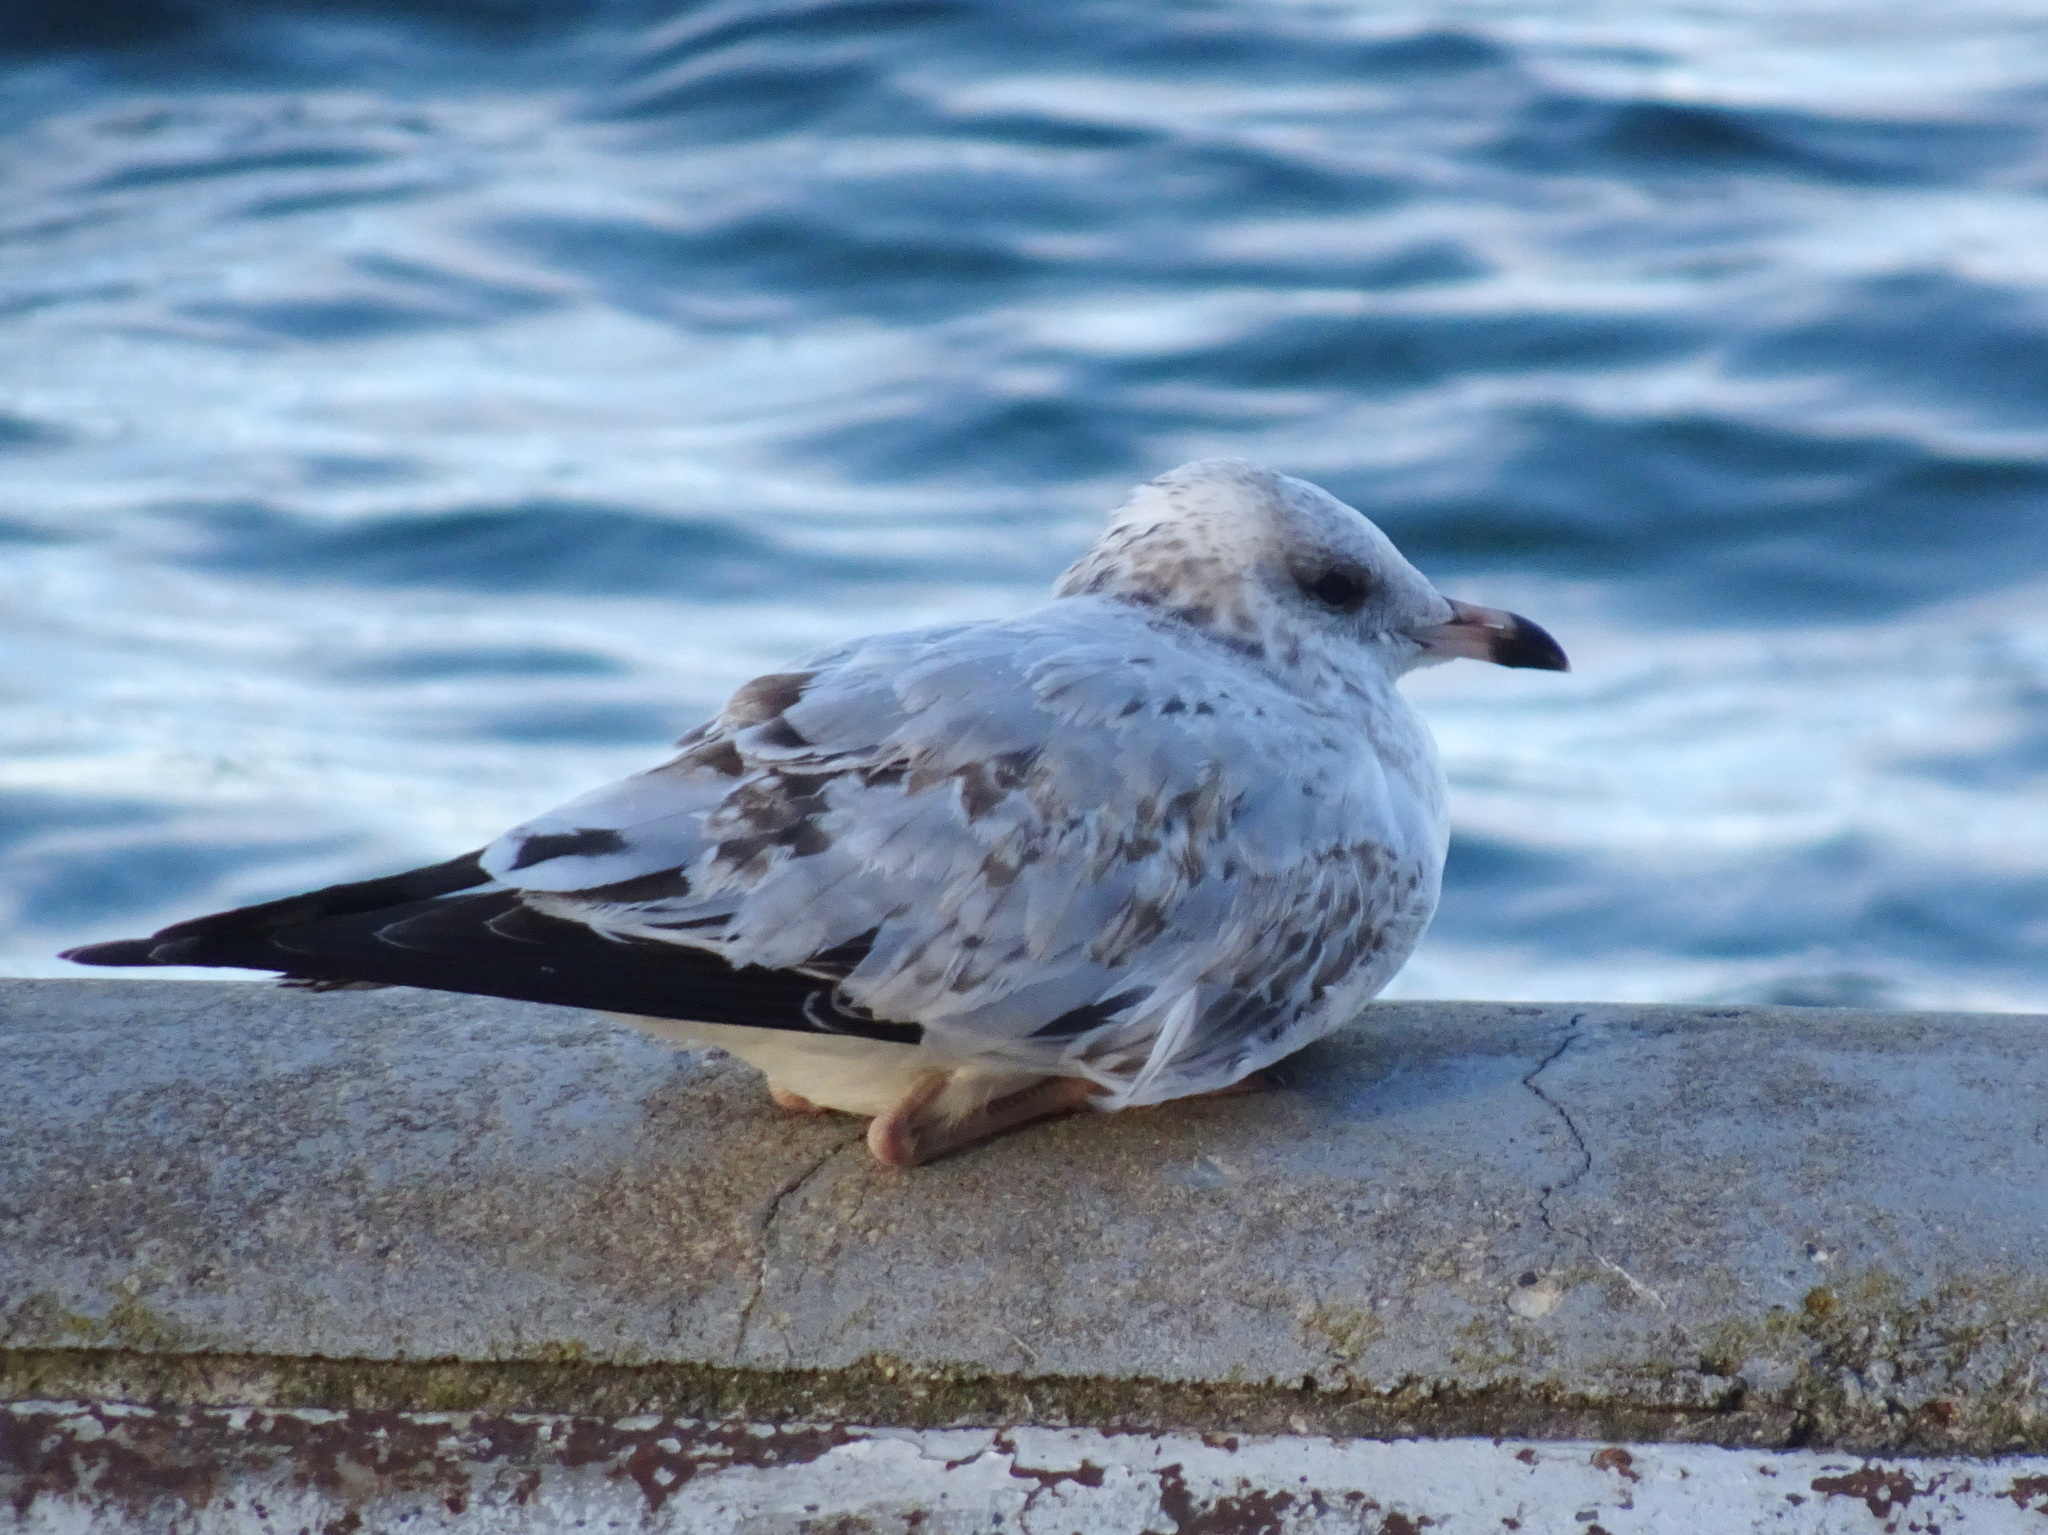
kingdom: Animalia
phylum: Chordata
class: Aves
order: Charadriiformes
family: Laridae
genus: Larus
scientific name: Larus delawarensis
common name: Ring-billed gull
